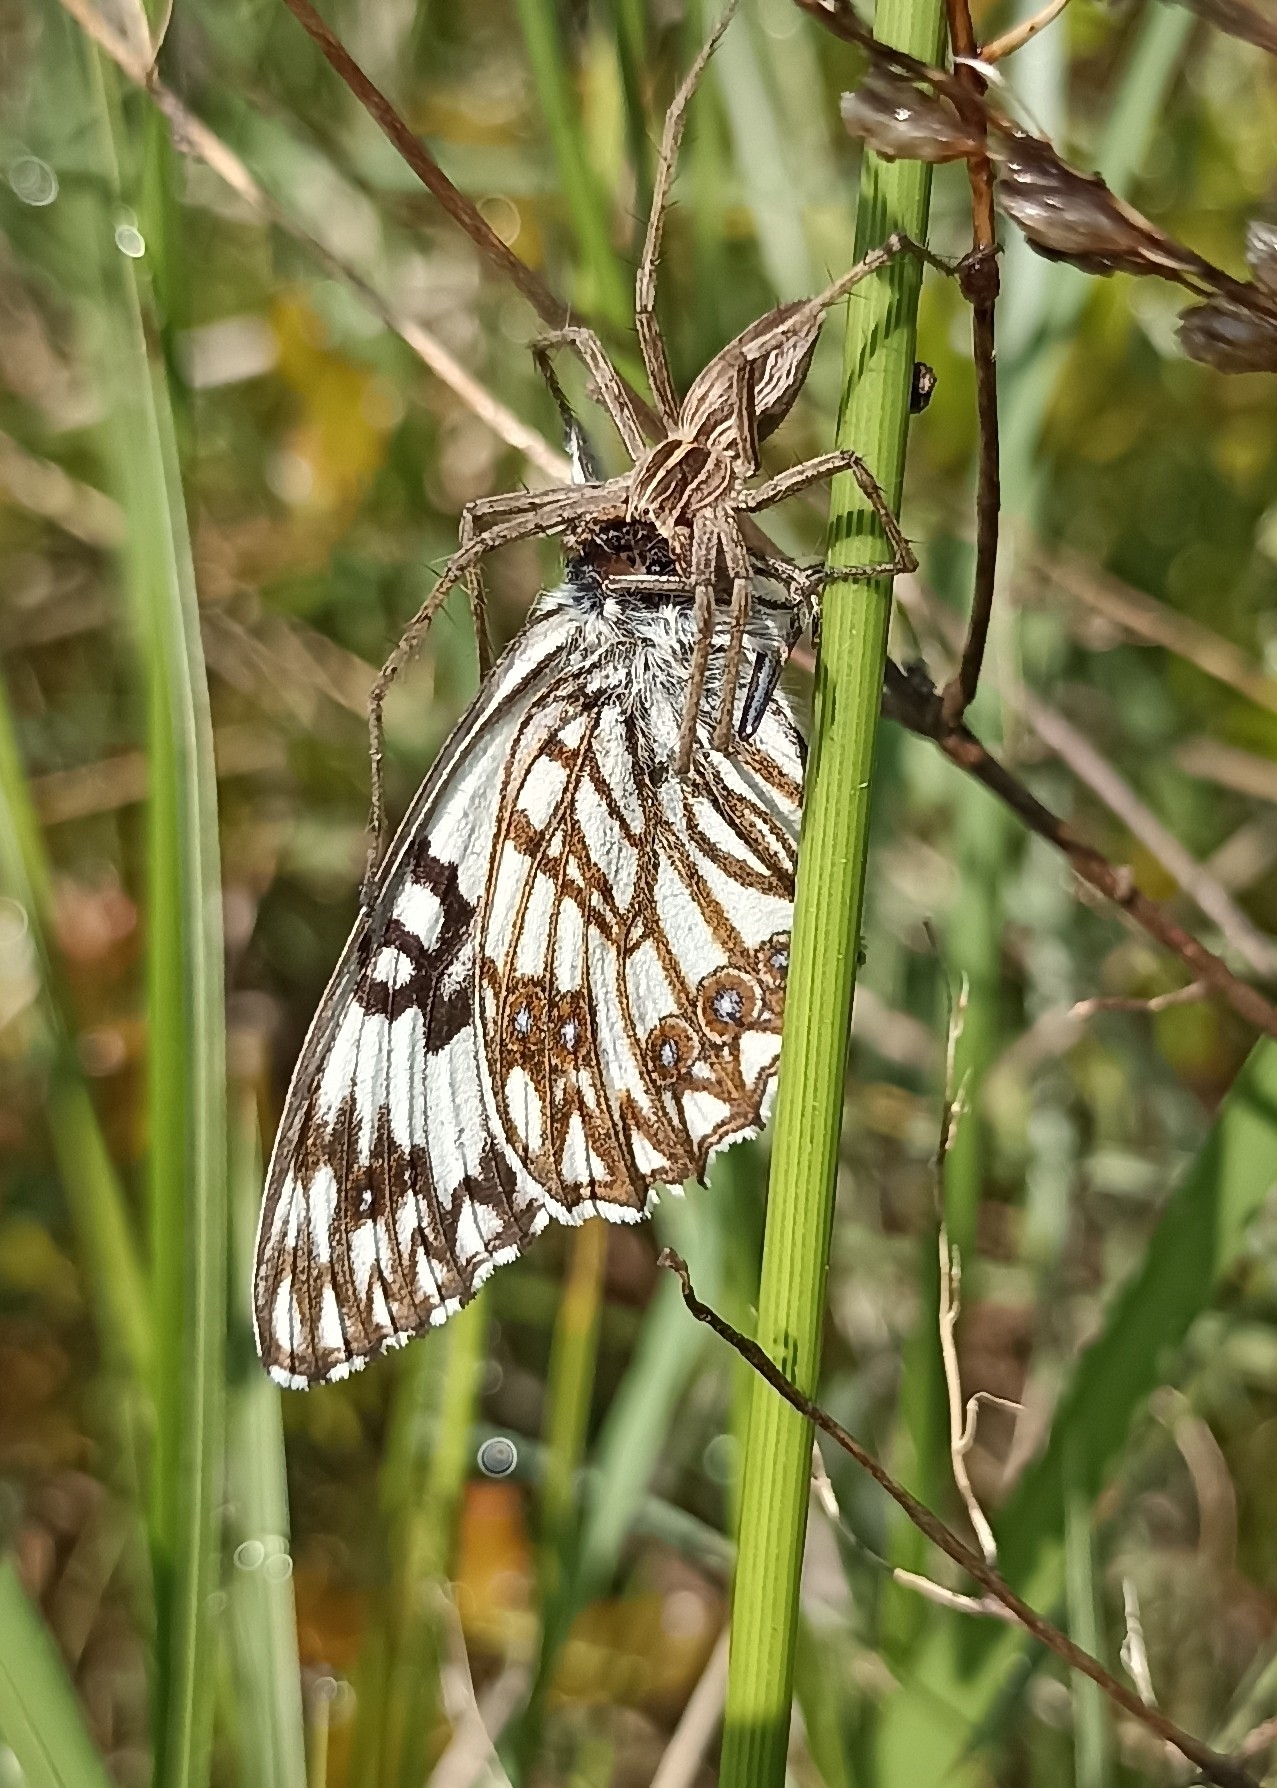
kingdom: Animalia
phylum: Arthropoda
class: Insecta
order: Lepidoptera
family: Nymphalidae
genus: Melanargia
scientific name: Melanargia occitanica
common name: Western marbled white
